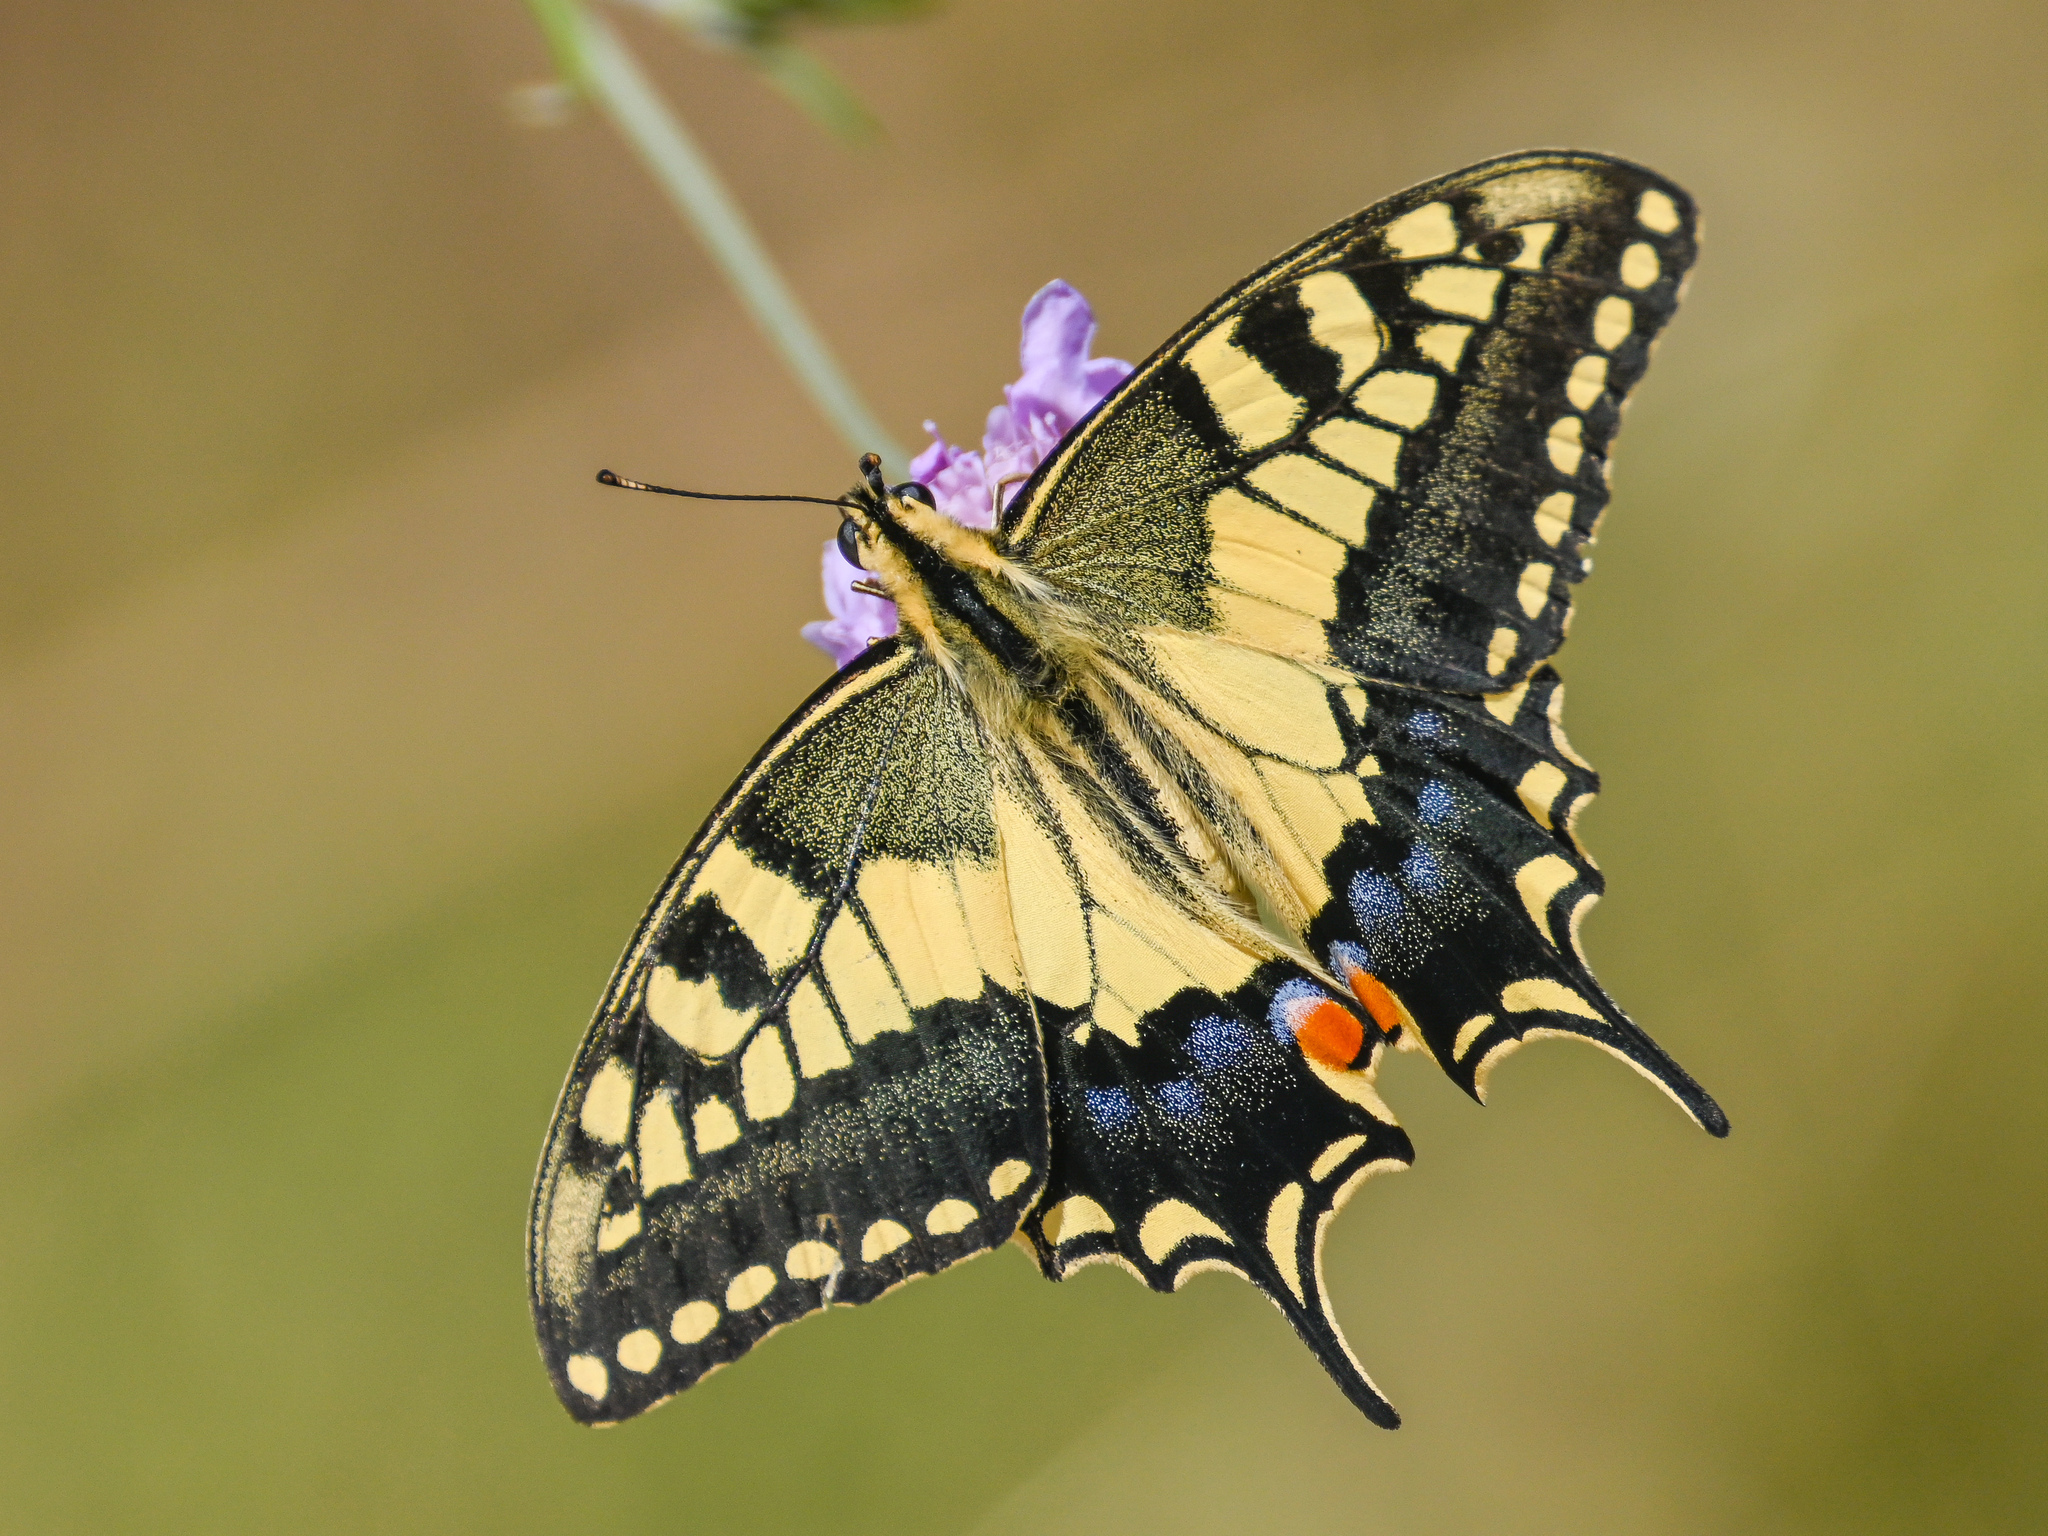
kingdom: Animalia
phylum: Arthropoda
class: Insecta
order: Lepidoptera
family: Papilionidae
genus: Papilio
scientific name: Papilio machaon
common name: Swallowtail
